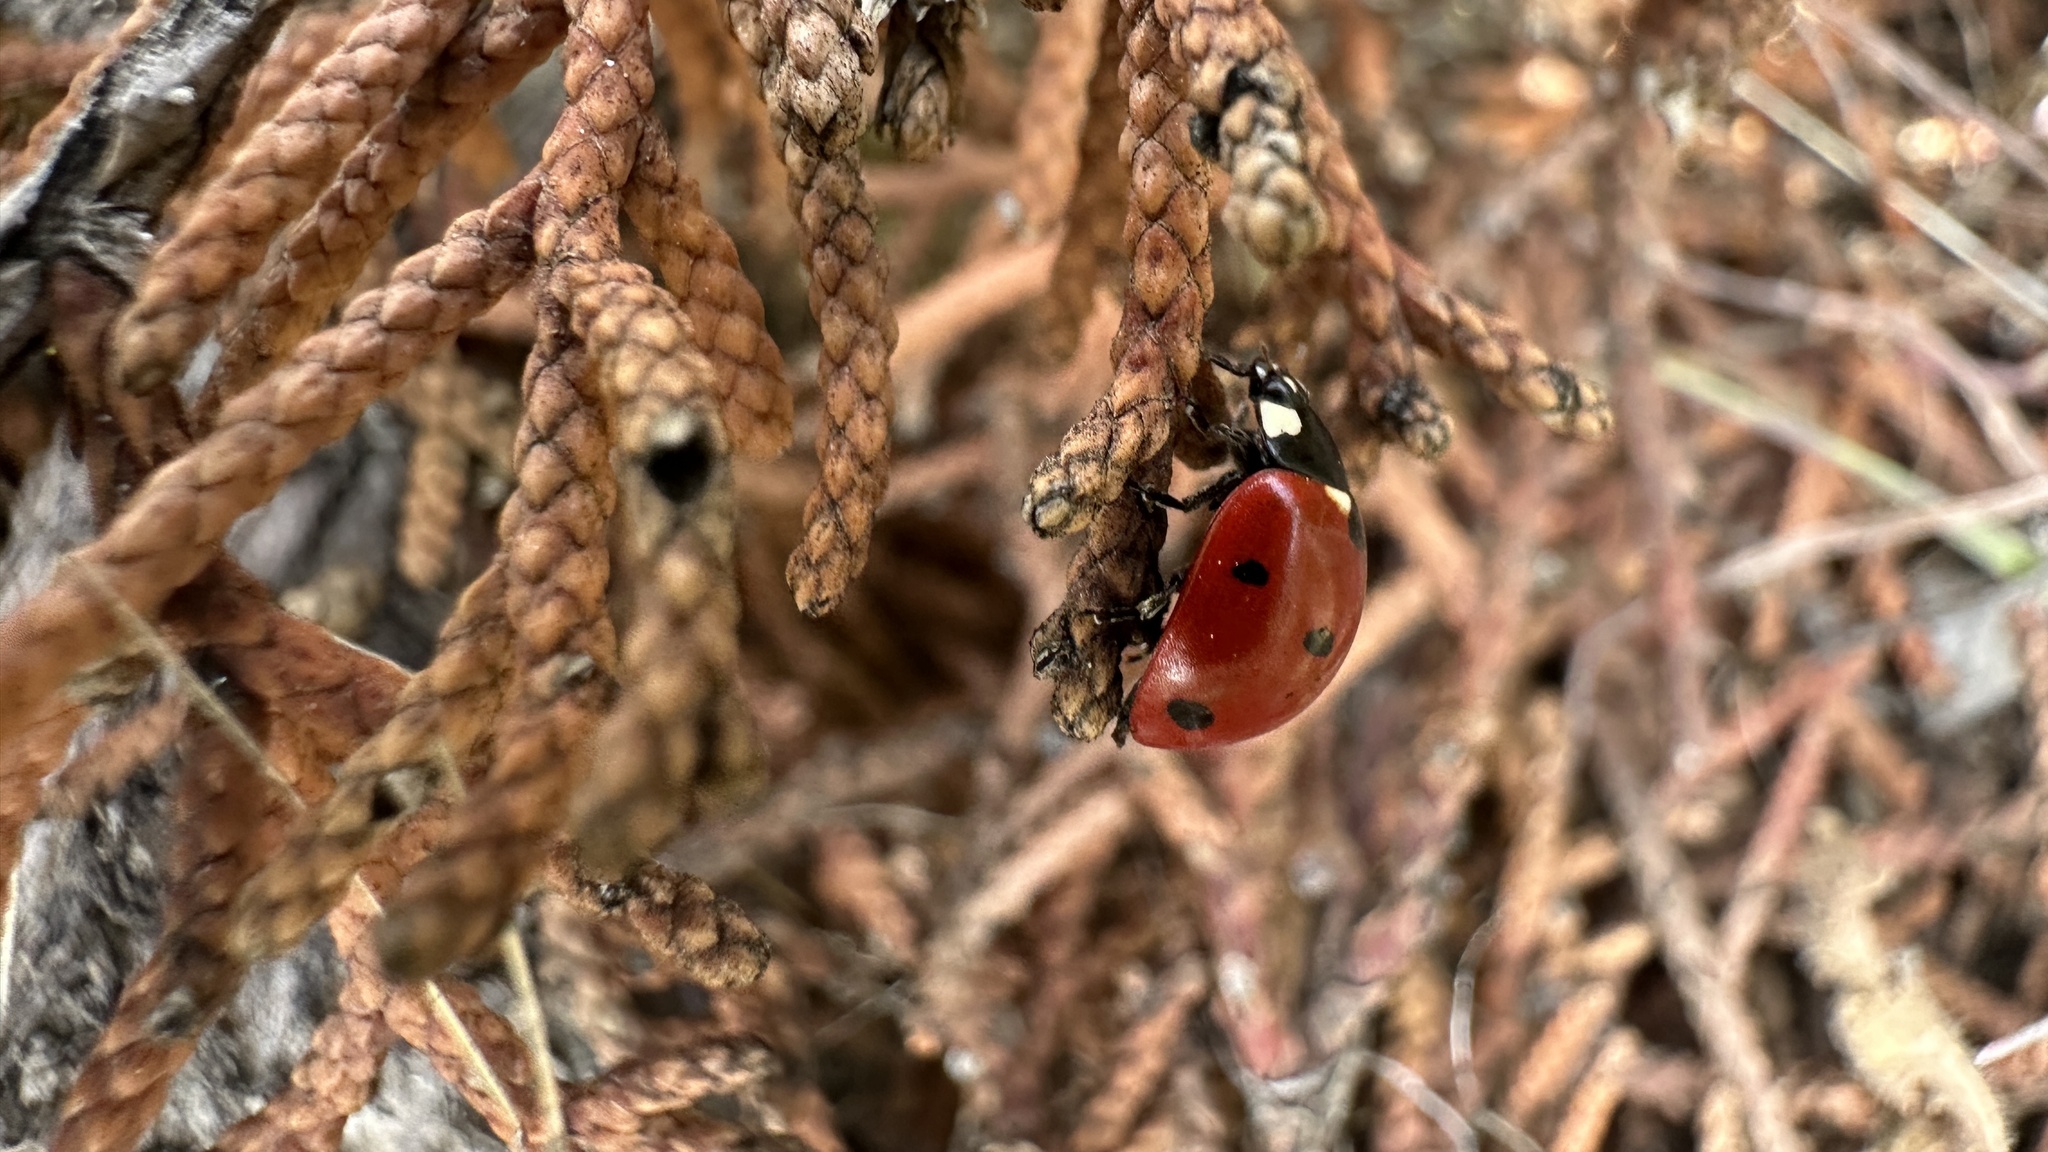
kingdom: Animalia
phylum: Arthropoda
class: Insecta
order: Coleoptera
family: Coccinellidae
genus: Coccinella
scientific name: Coccinella septempunctata
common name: Sevenspotted lady beetle
